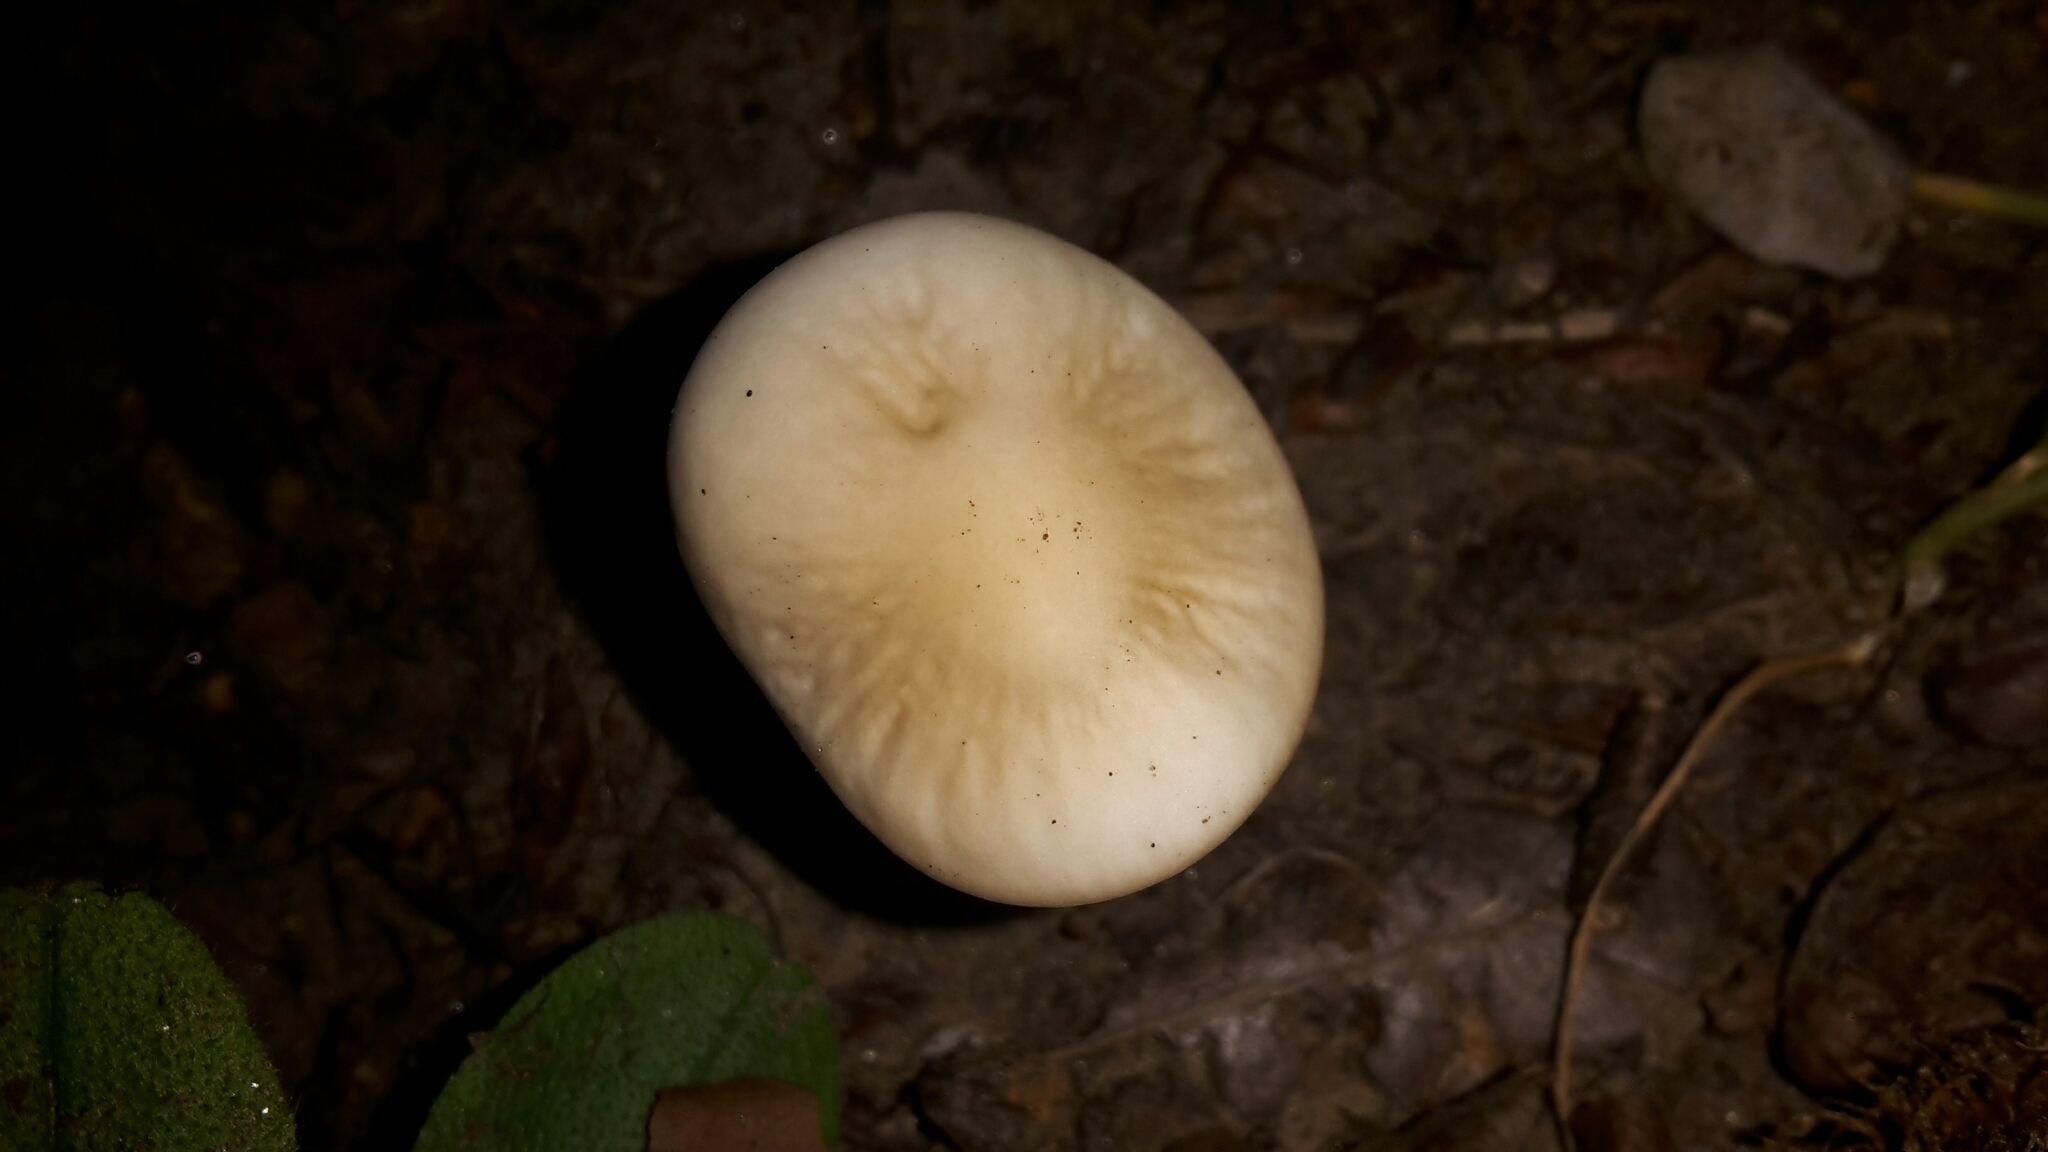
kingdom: Fungi
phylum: Basidiomycota
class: Agaricomycetes
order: Agaricales
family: Physalacriaceae
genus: Hymenopellis
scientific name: Hymenopellis radicata
